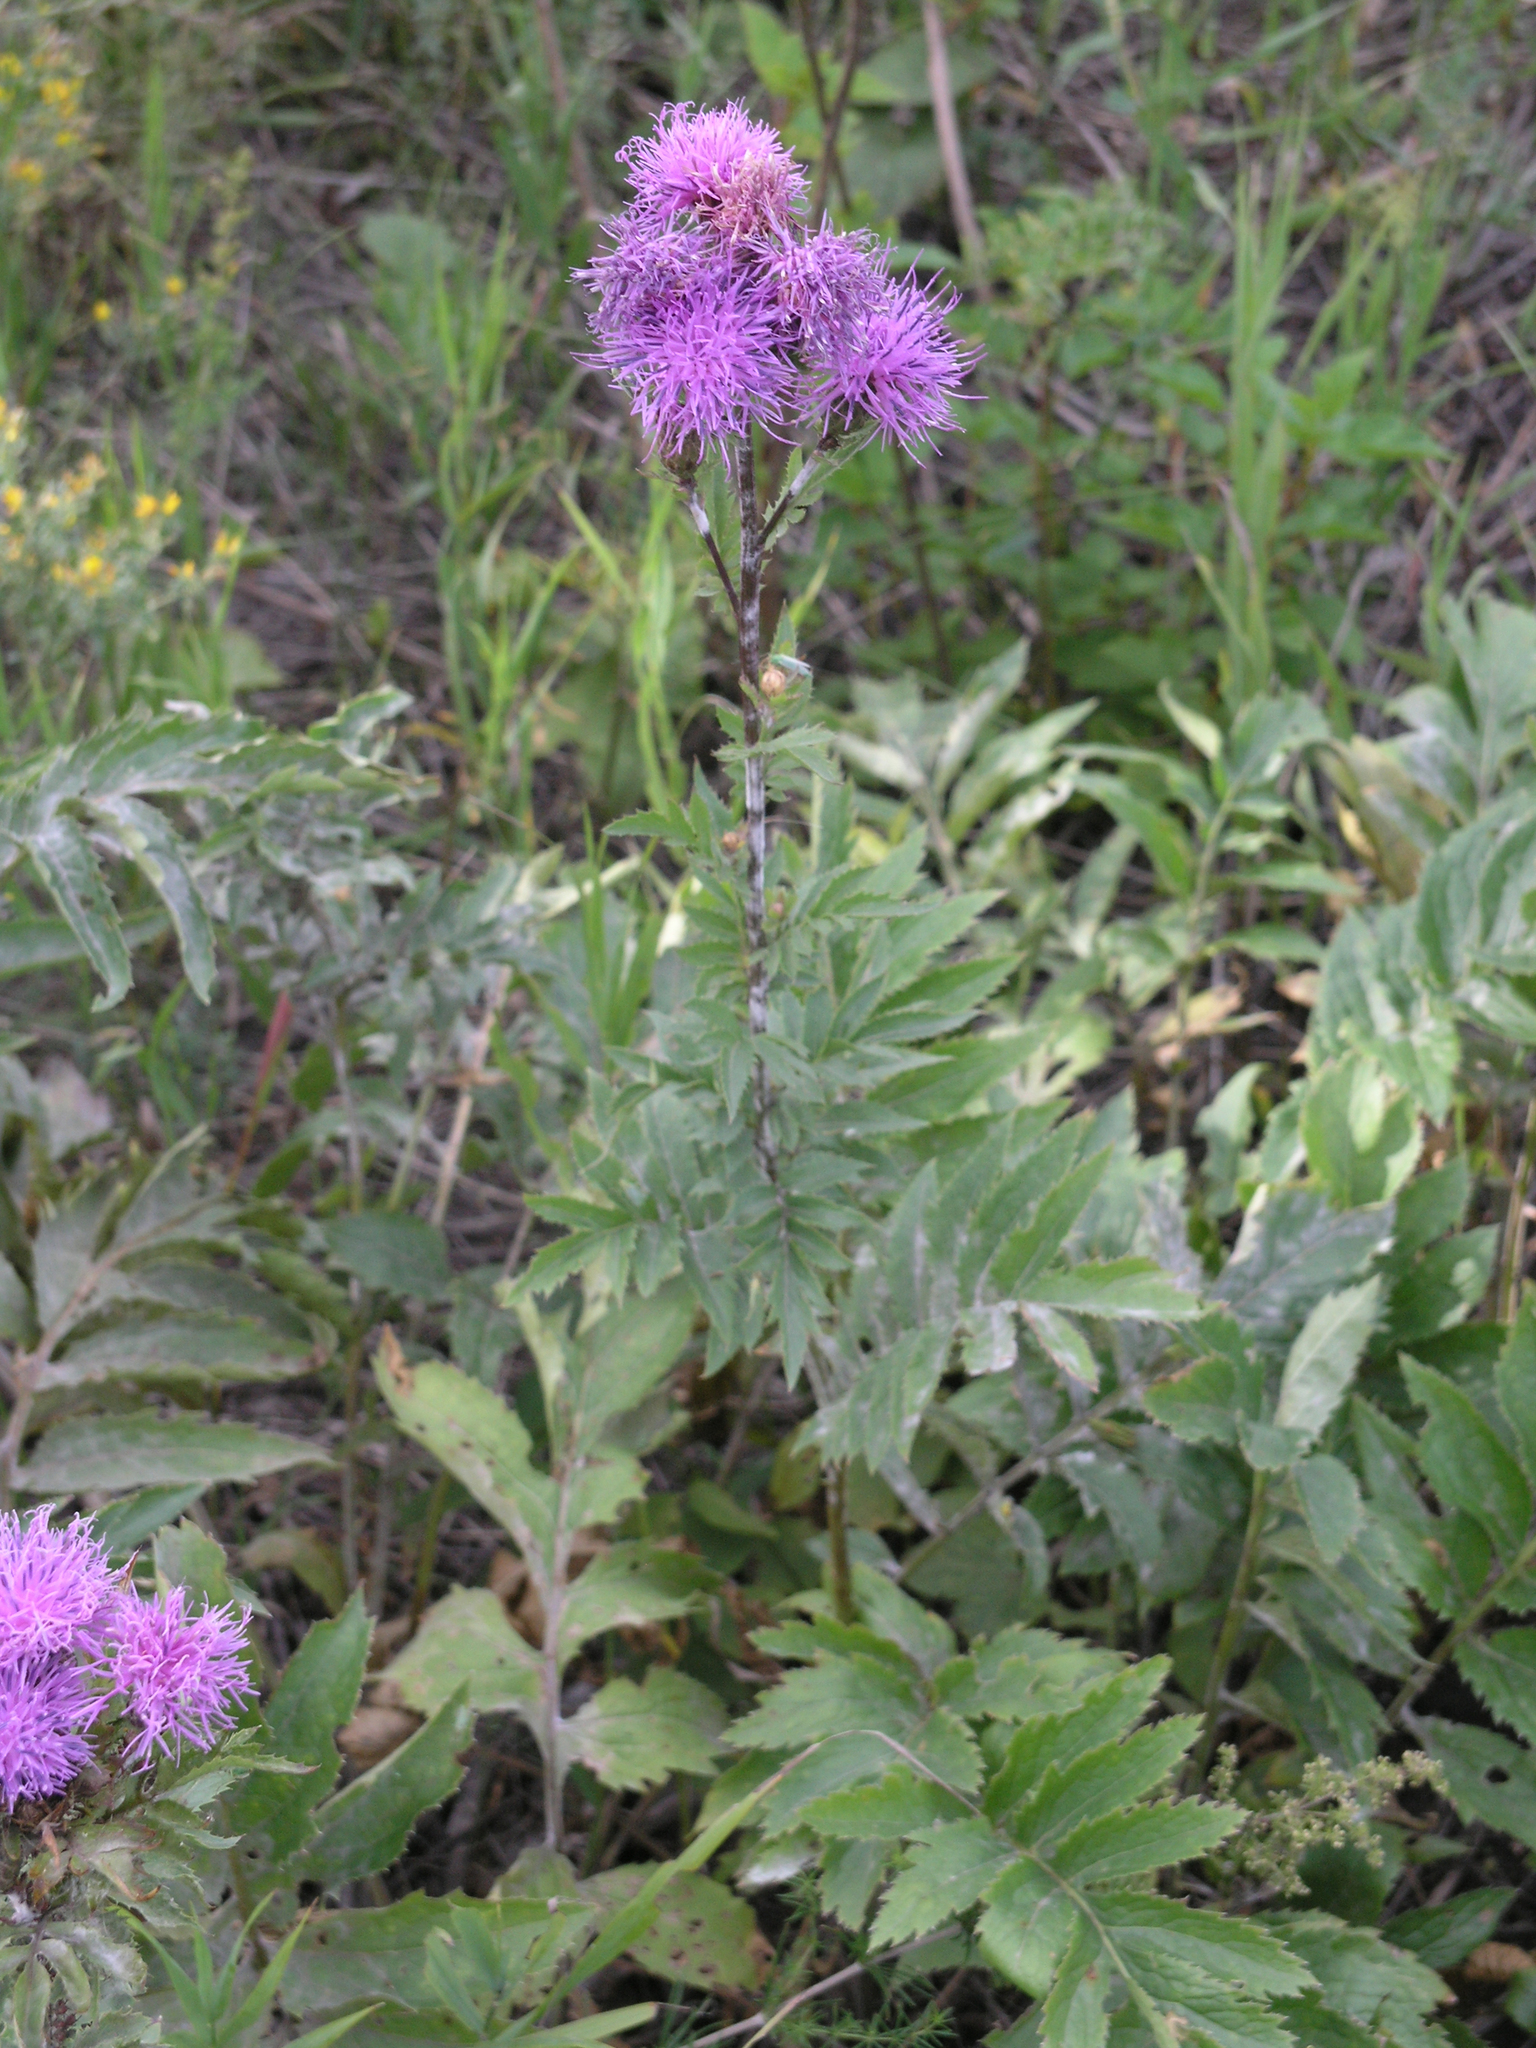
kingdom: Plantae
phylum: Tracheophyta
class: Magnoliopsida
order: Asterales
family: Asteraceae
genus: Serratula
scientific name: Serratula coronata
